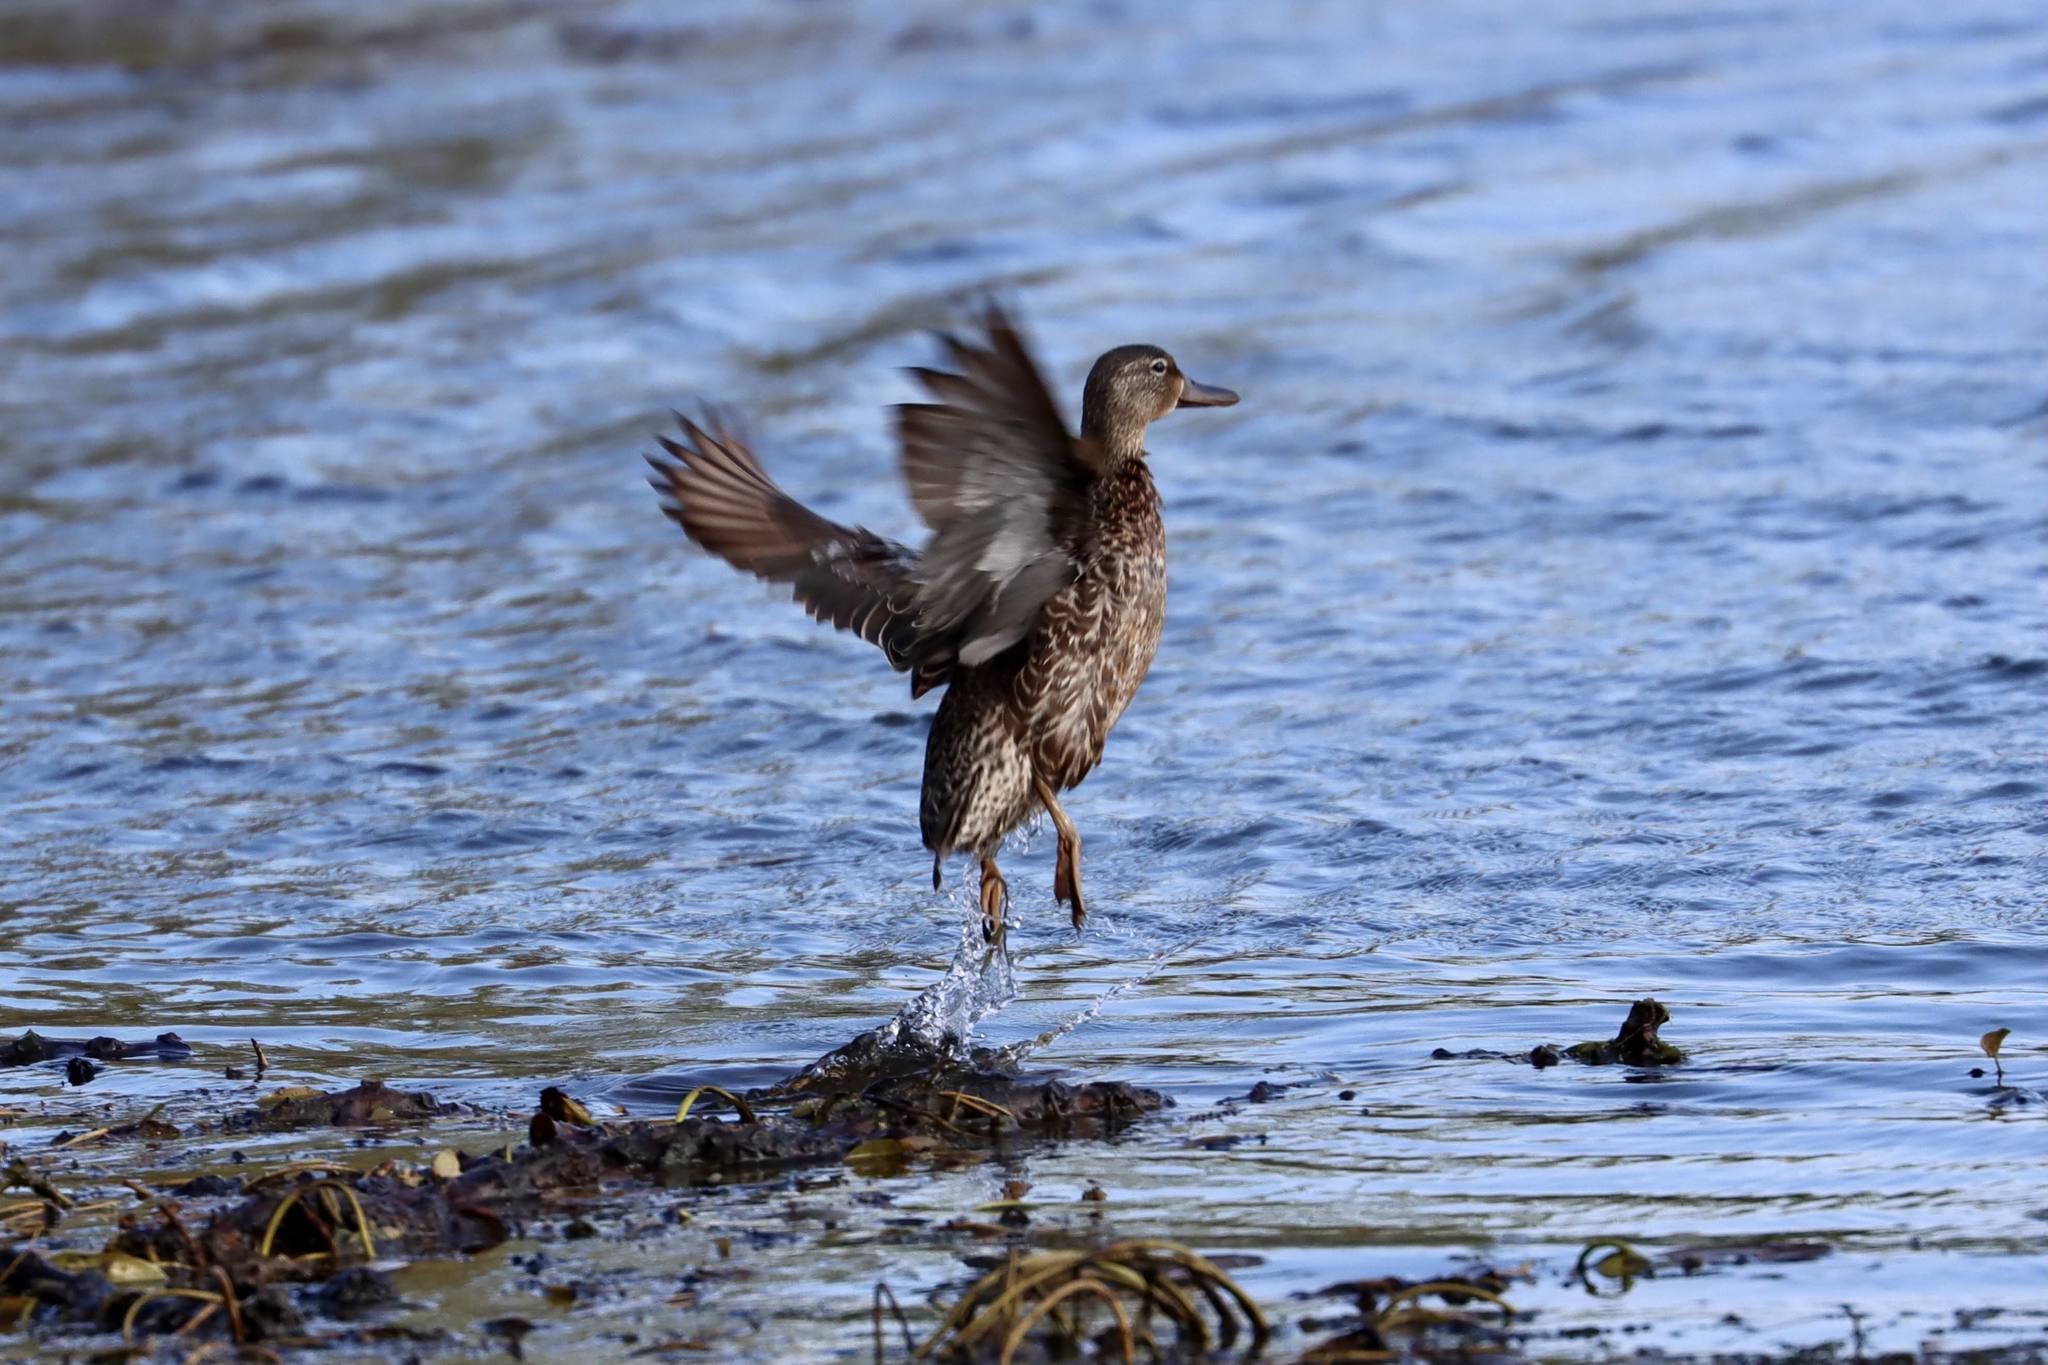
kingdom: Animalia
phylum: Chordata
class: Aves
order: Anseriformes
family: Anatidae
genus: Spatula
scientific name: Spatula discors
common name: Blue-winged teal
